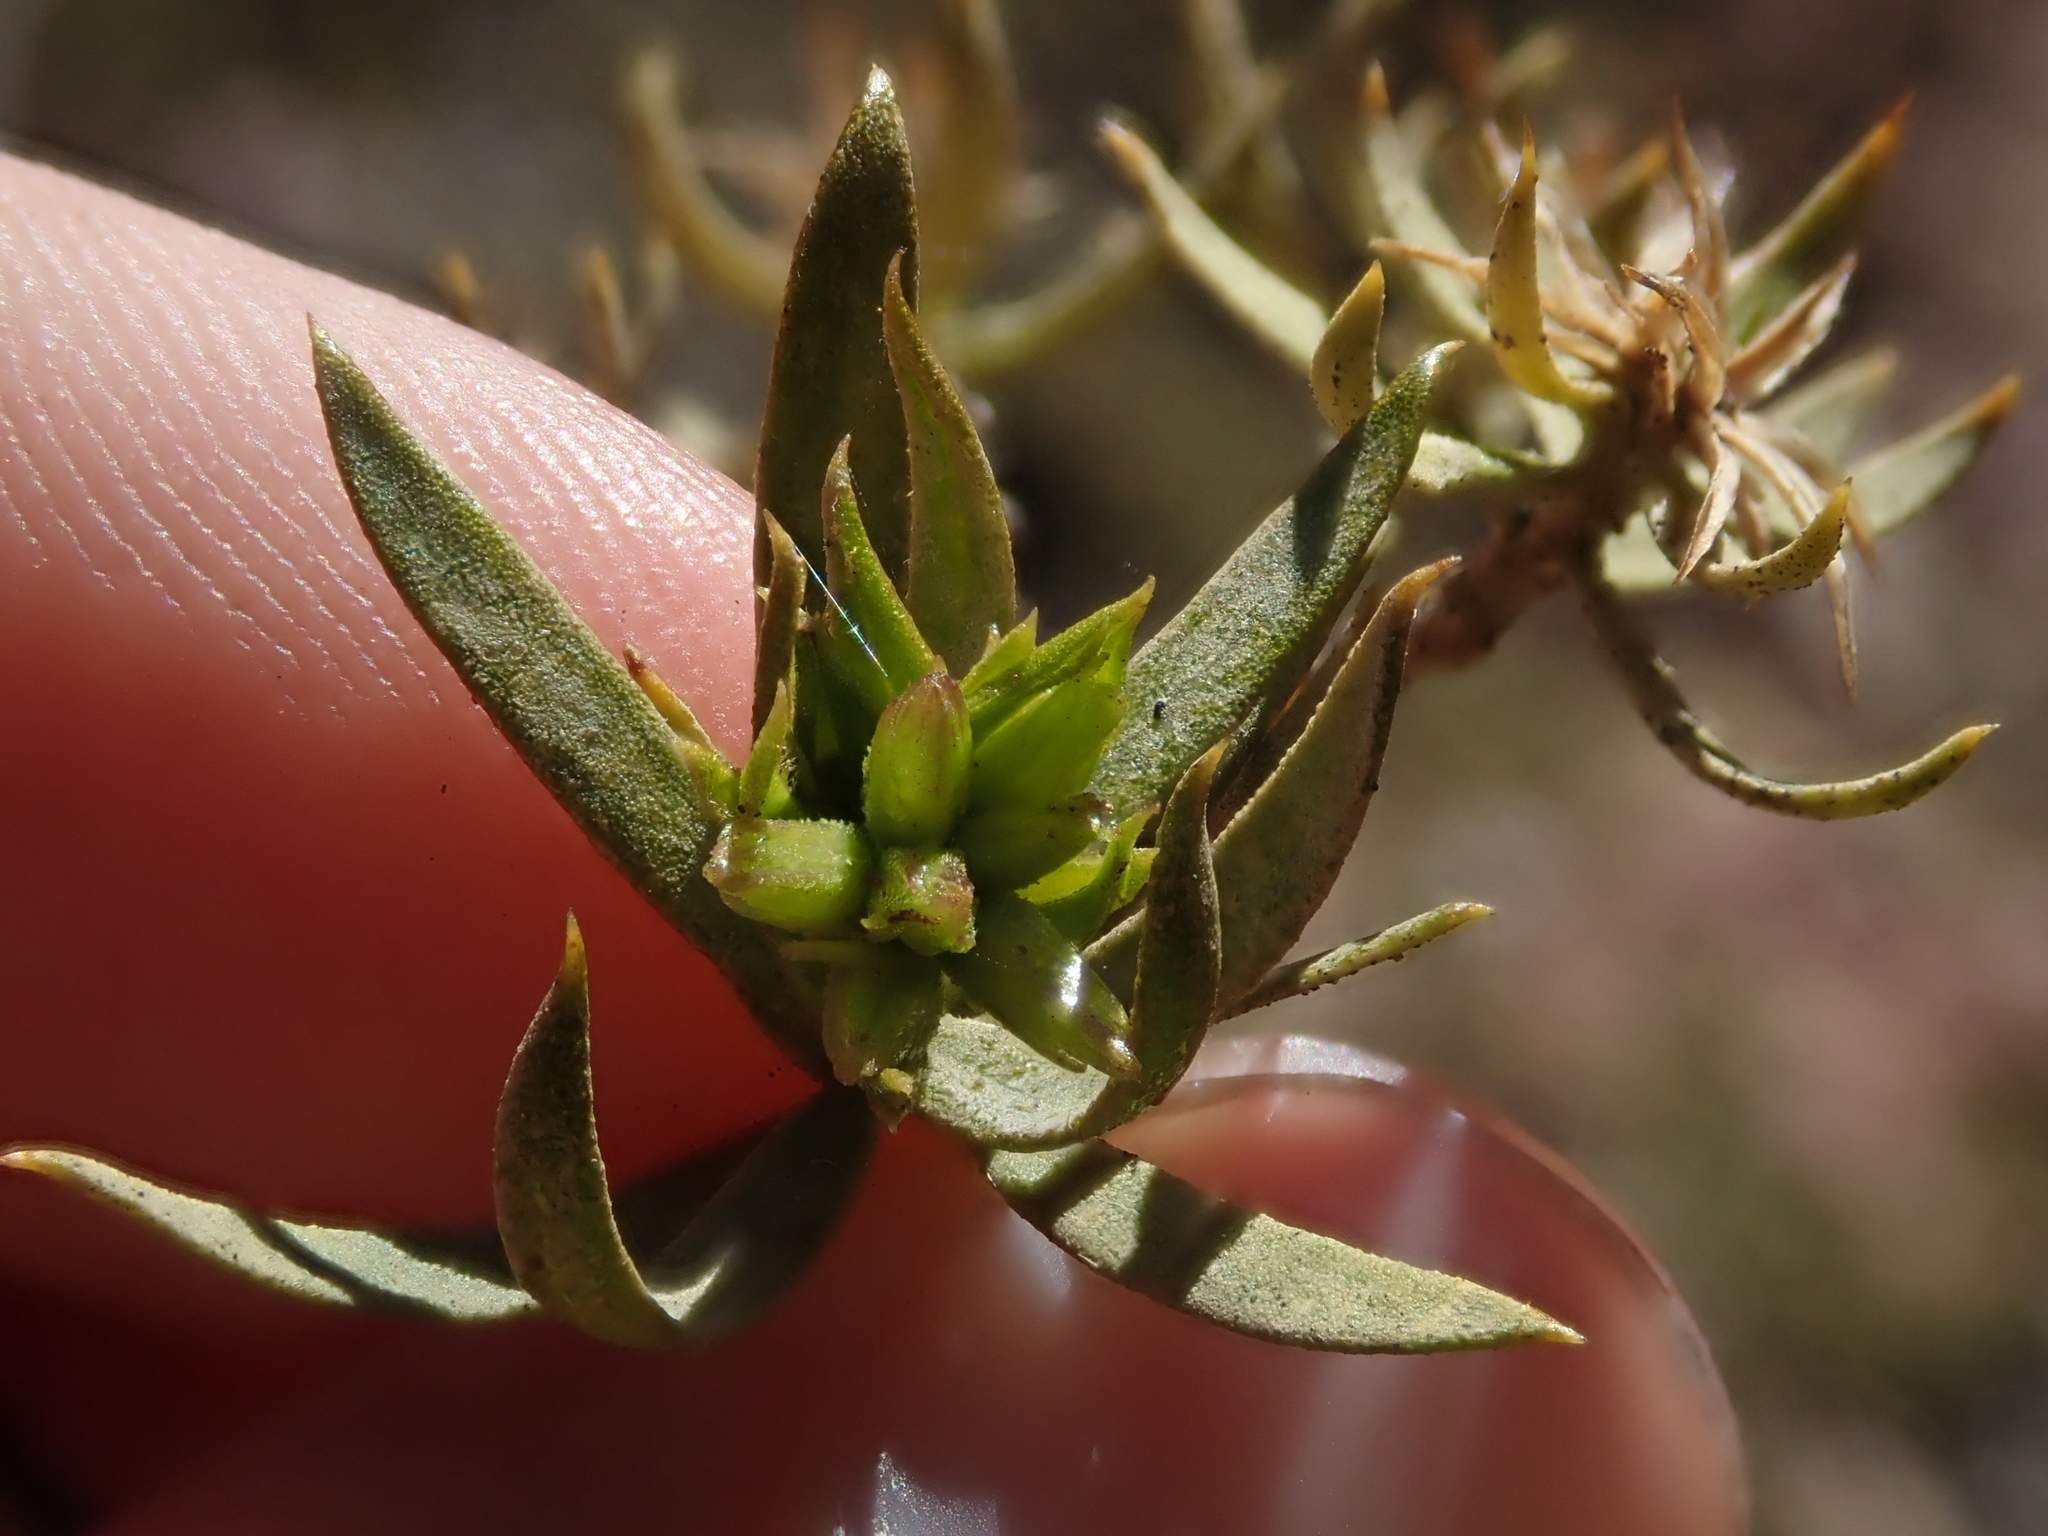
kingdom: Plantae
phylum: Tracheophyta
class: Magnoliopsida
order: Asterales
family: Asteraceae
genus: Gochnatia
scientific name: Gochnatia glutinosa
